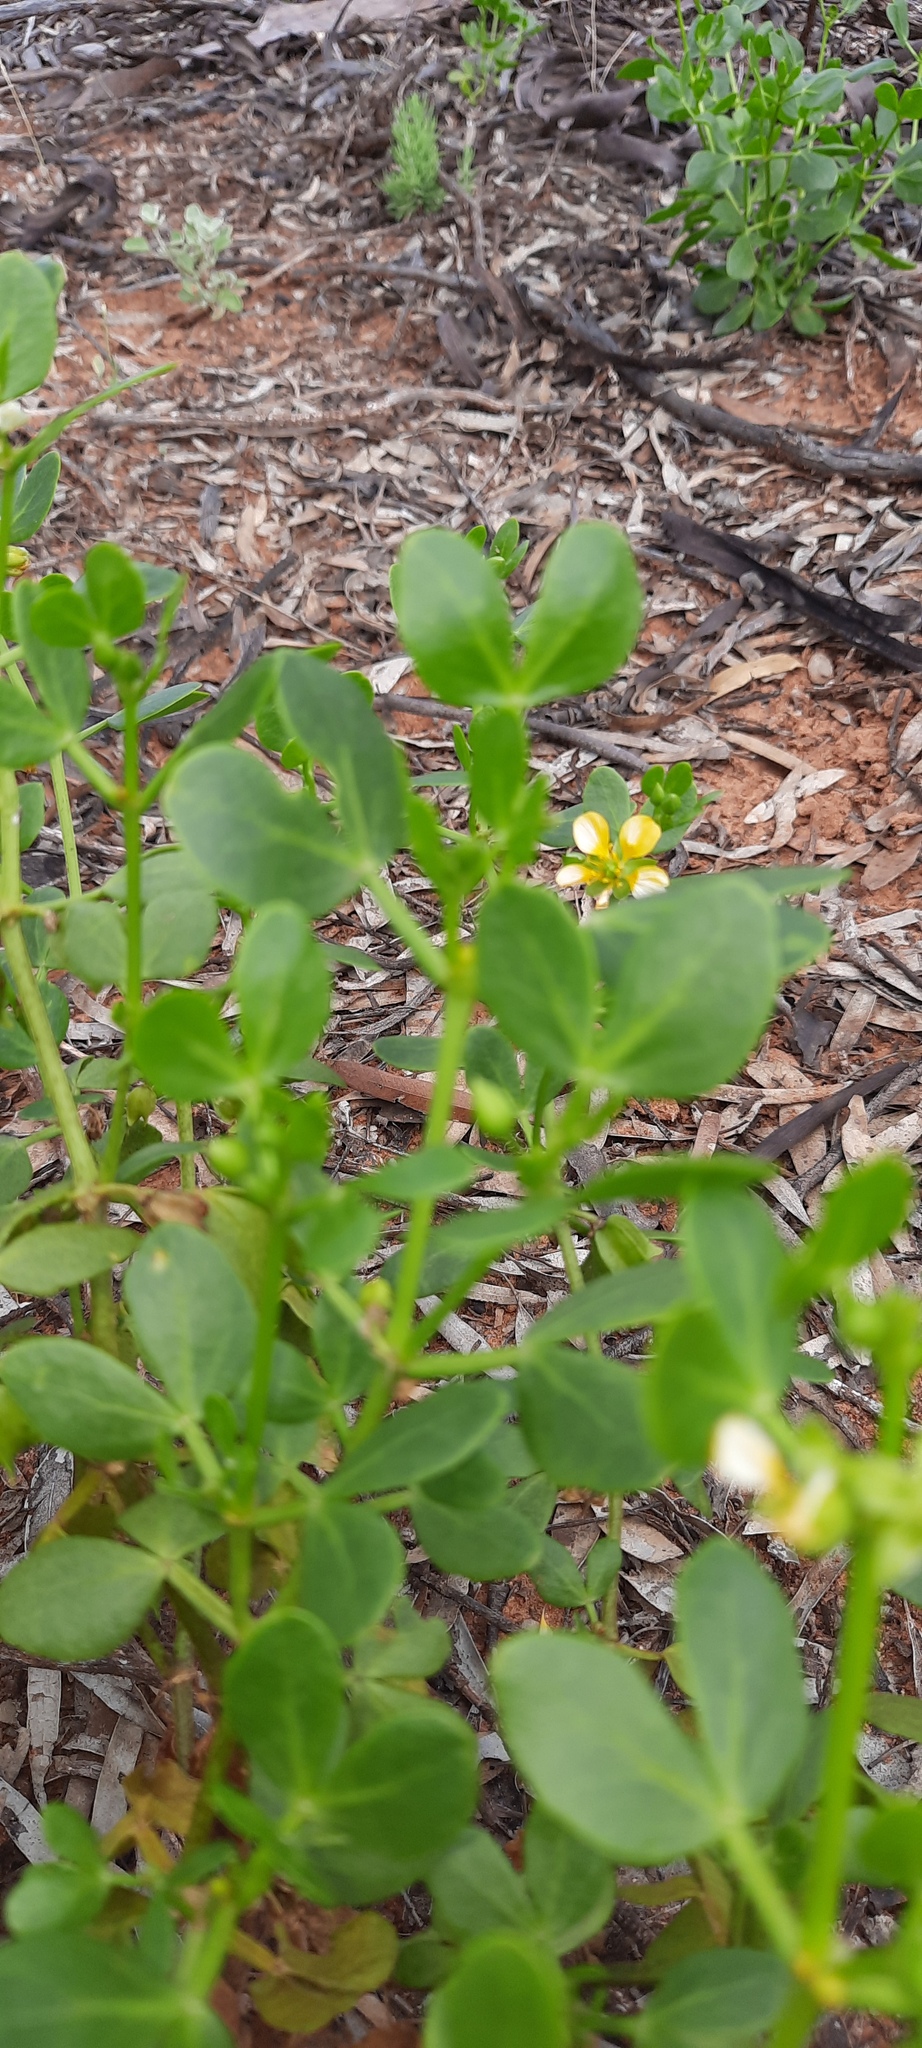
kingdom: Plantae
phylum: Tracheophyta
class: Magnoliopsida
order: Zygophyllales
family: Zygophyllaceae
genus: Roepera
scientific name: Roepera apiculata
